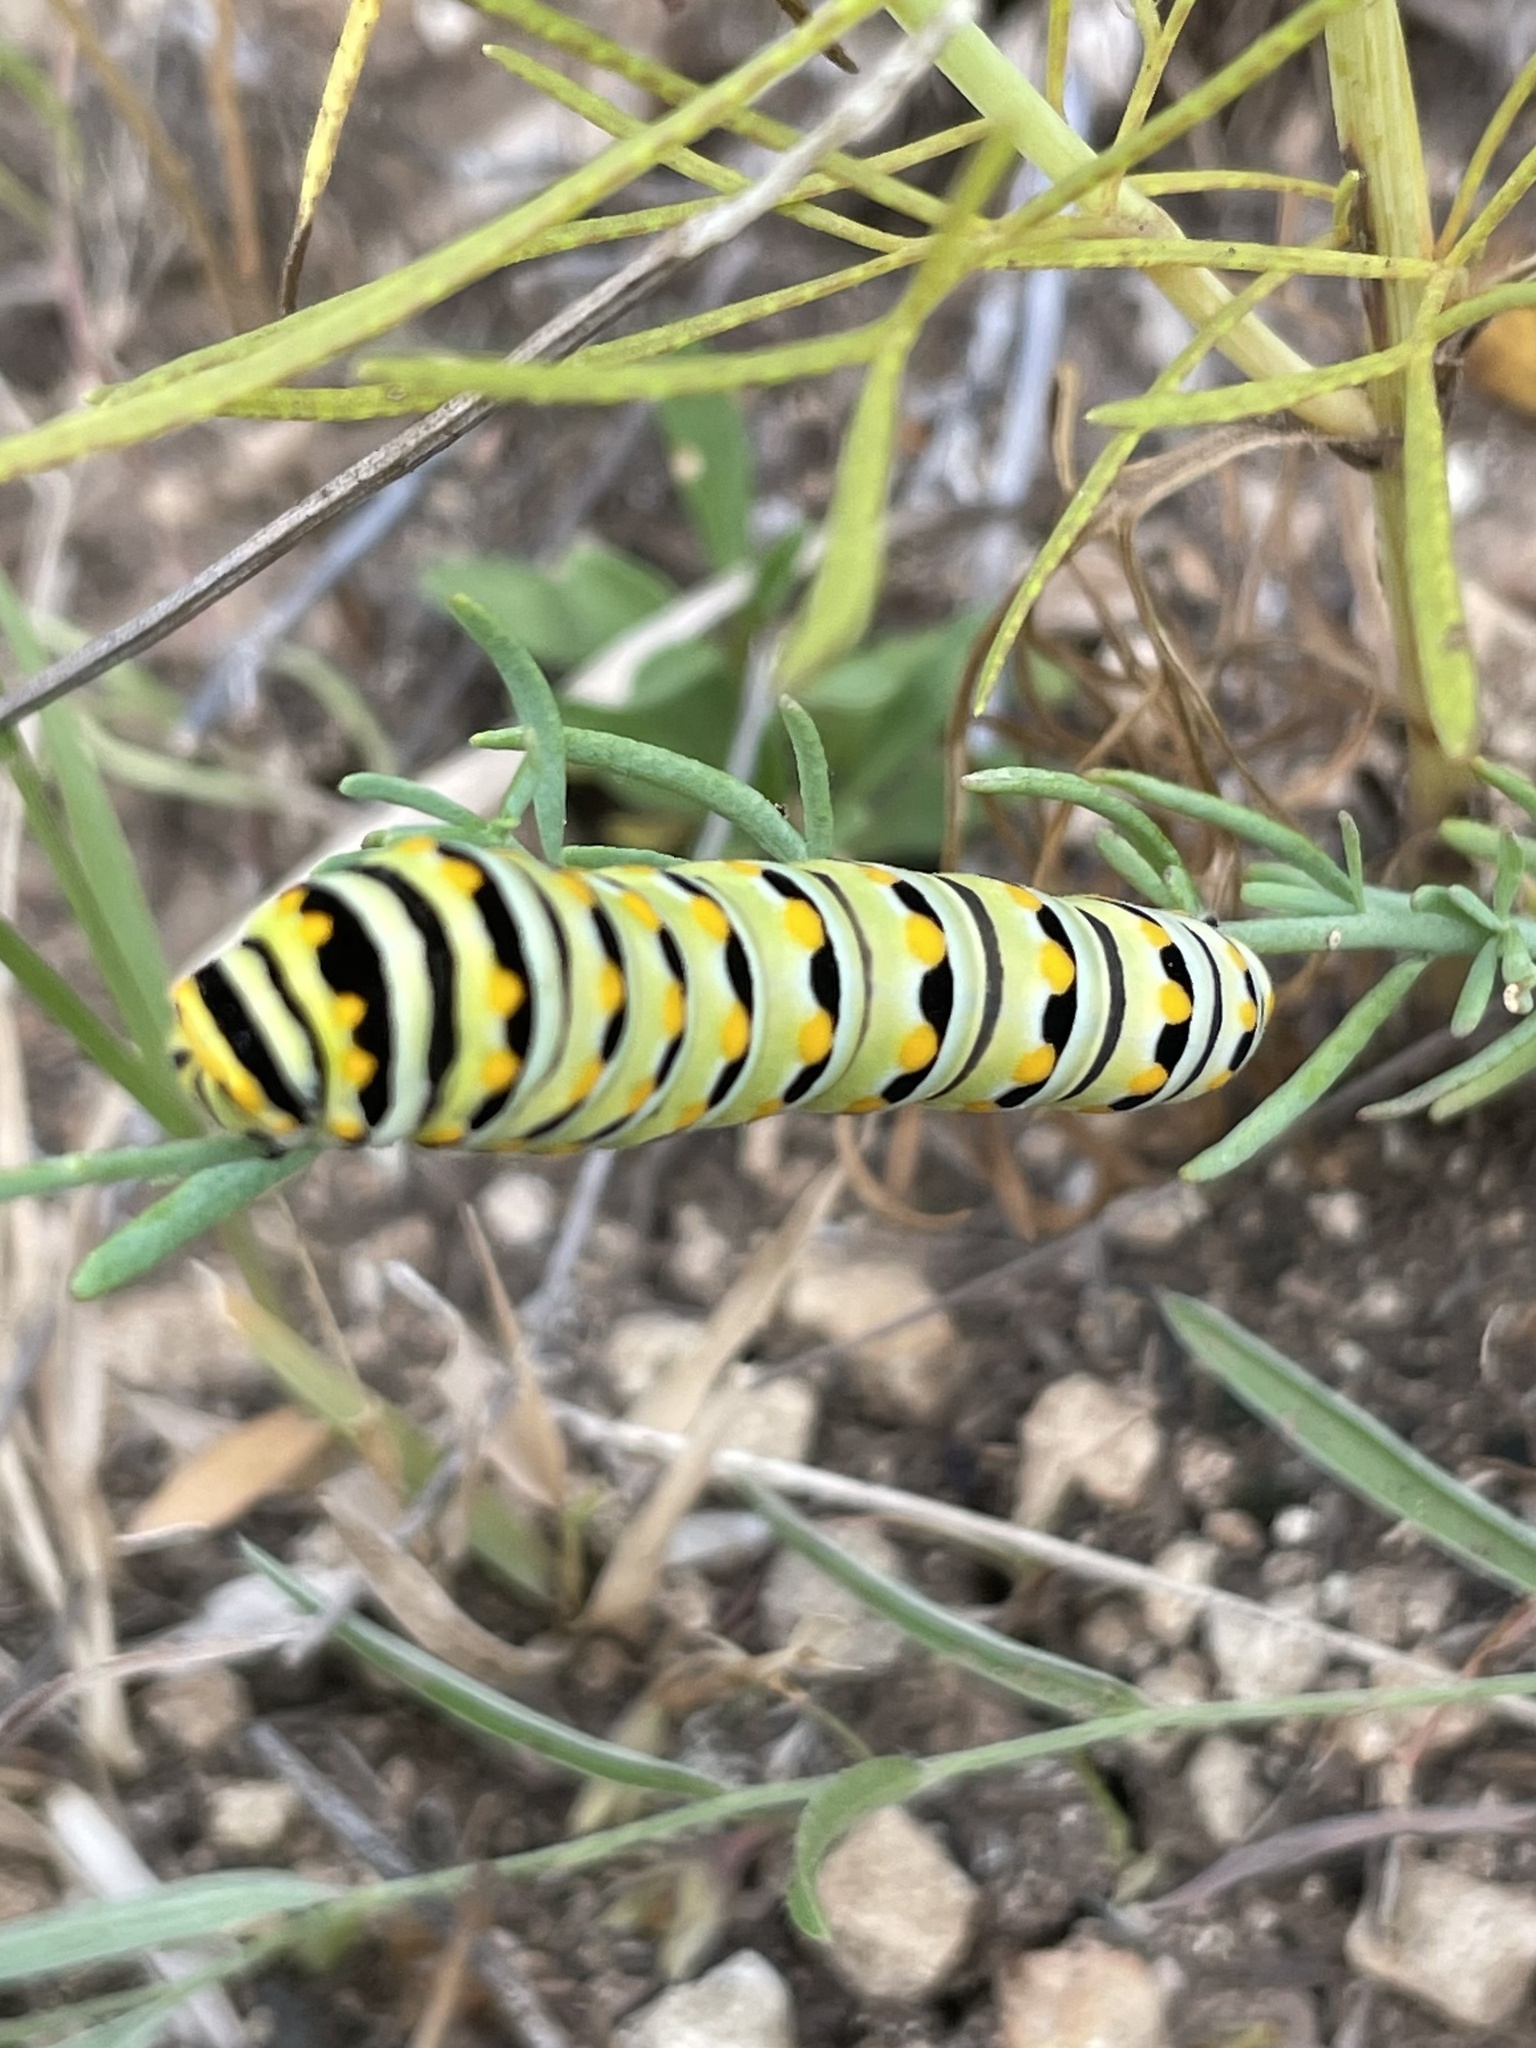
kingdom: Animalia
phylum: Arthropoda
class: Insecta
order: Lepidoptera
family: Papilionidae
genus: Papilio
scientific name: Papilio polyxenes
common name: Black swallowtail
